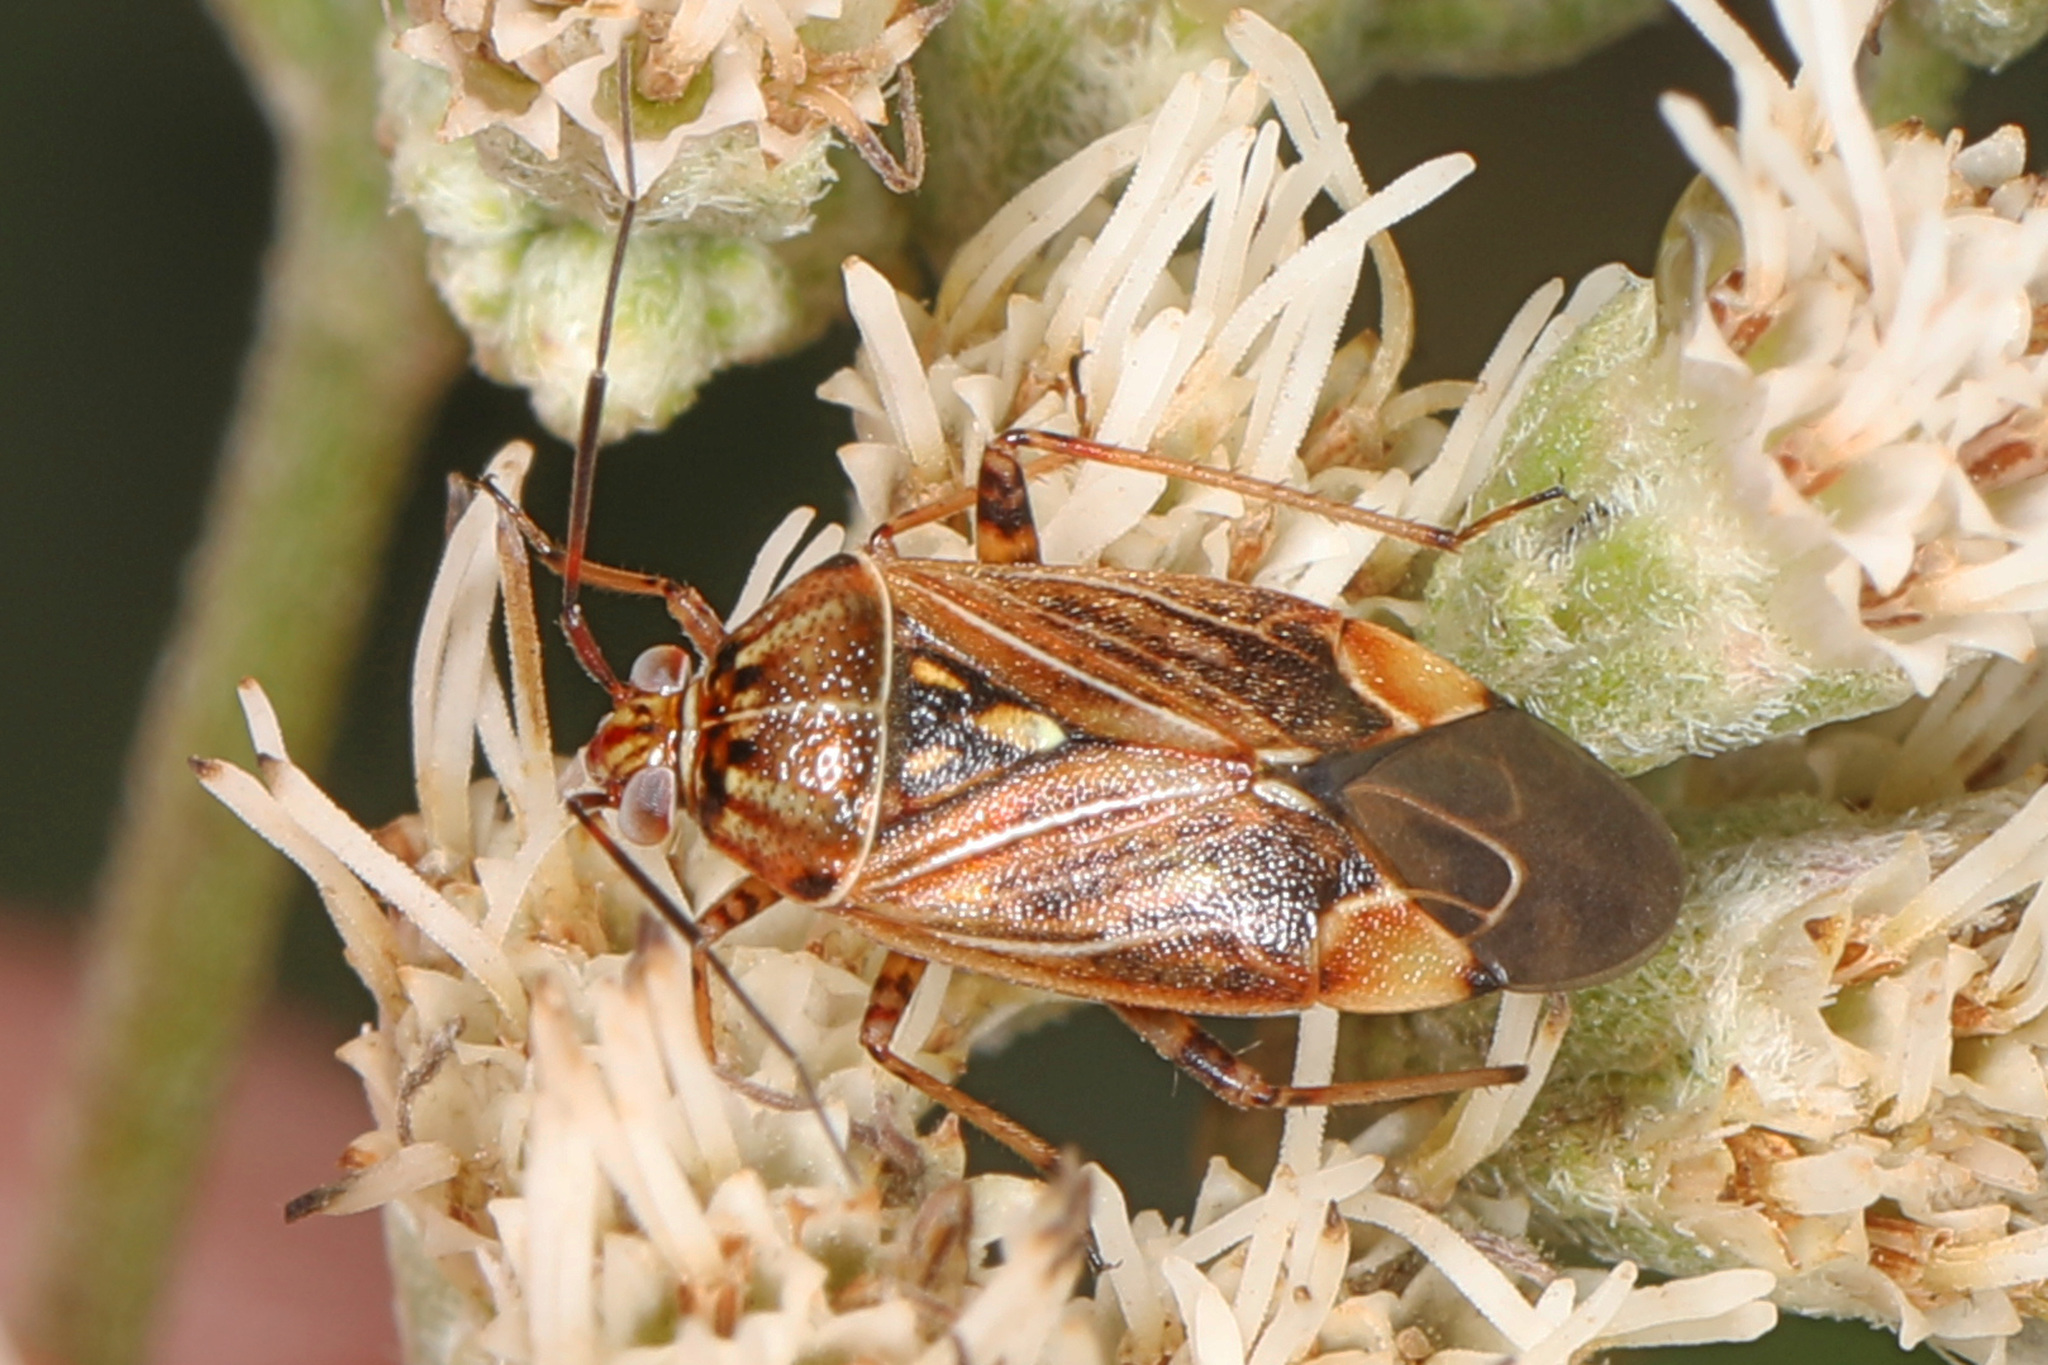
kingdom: Animalia
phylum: Arthropoda
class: Insecta
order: Hemiptera
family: Miridae
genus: Lygus
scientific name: Lygus lineolaris
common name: North american tarnished plant bug
